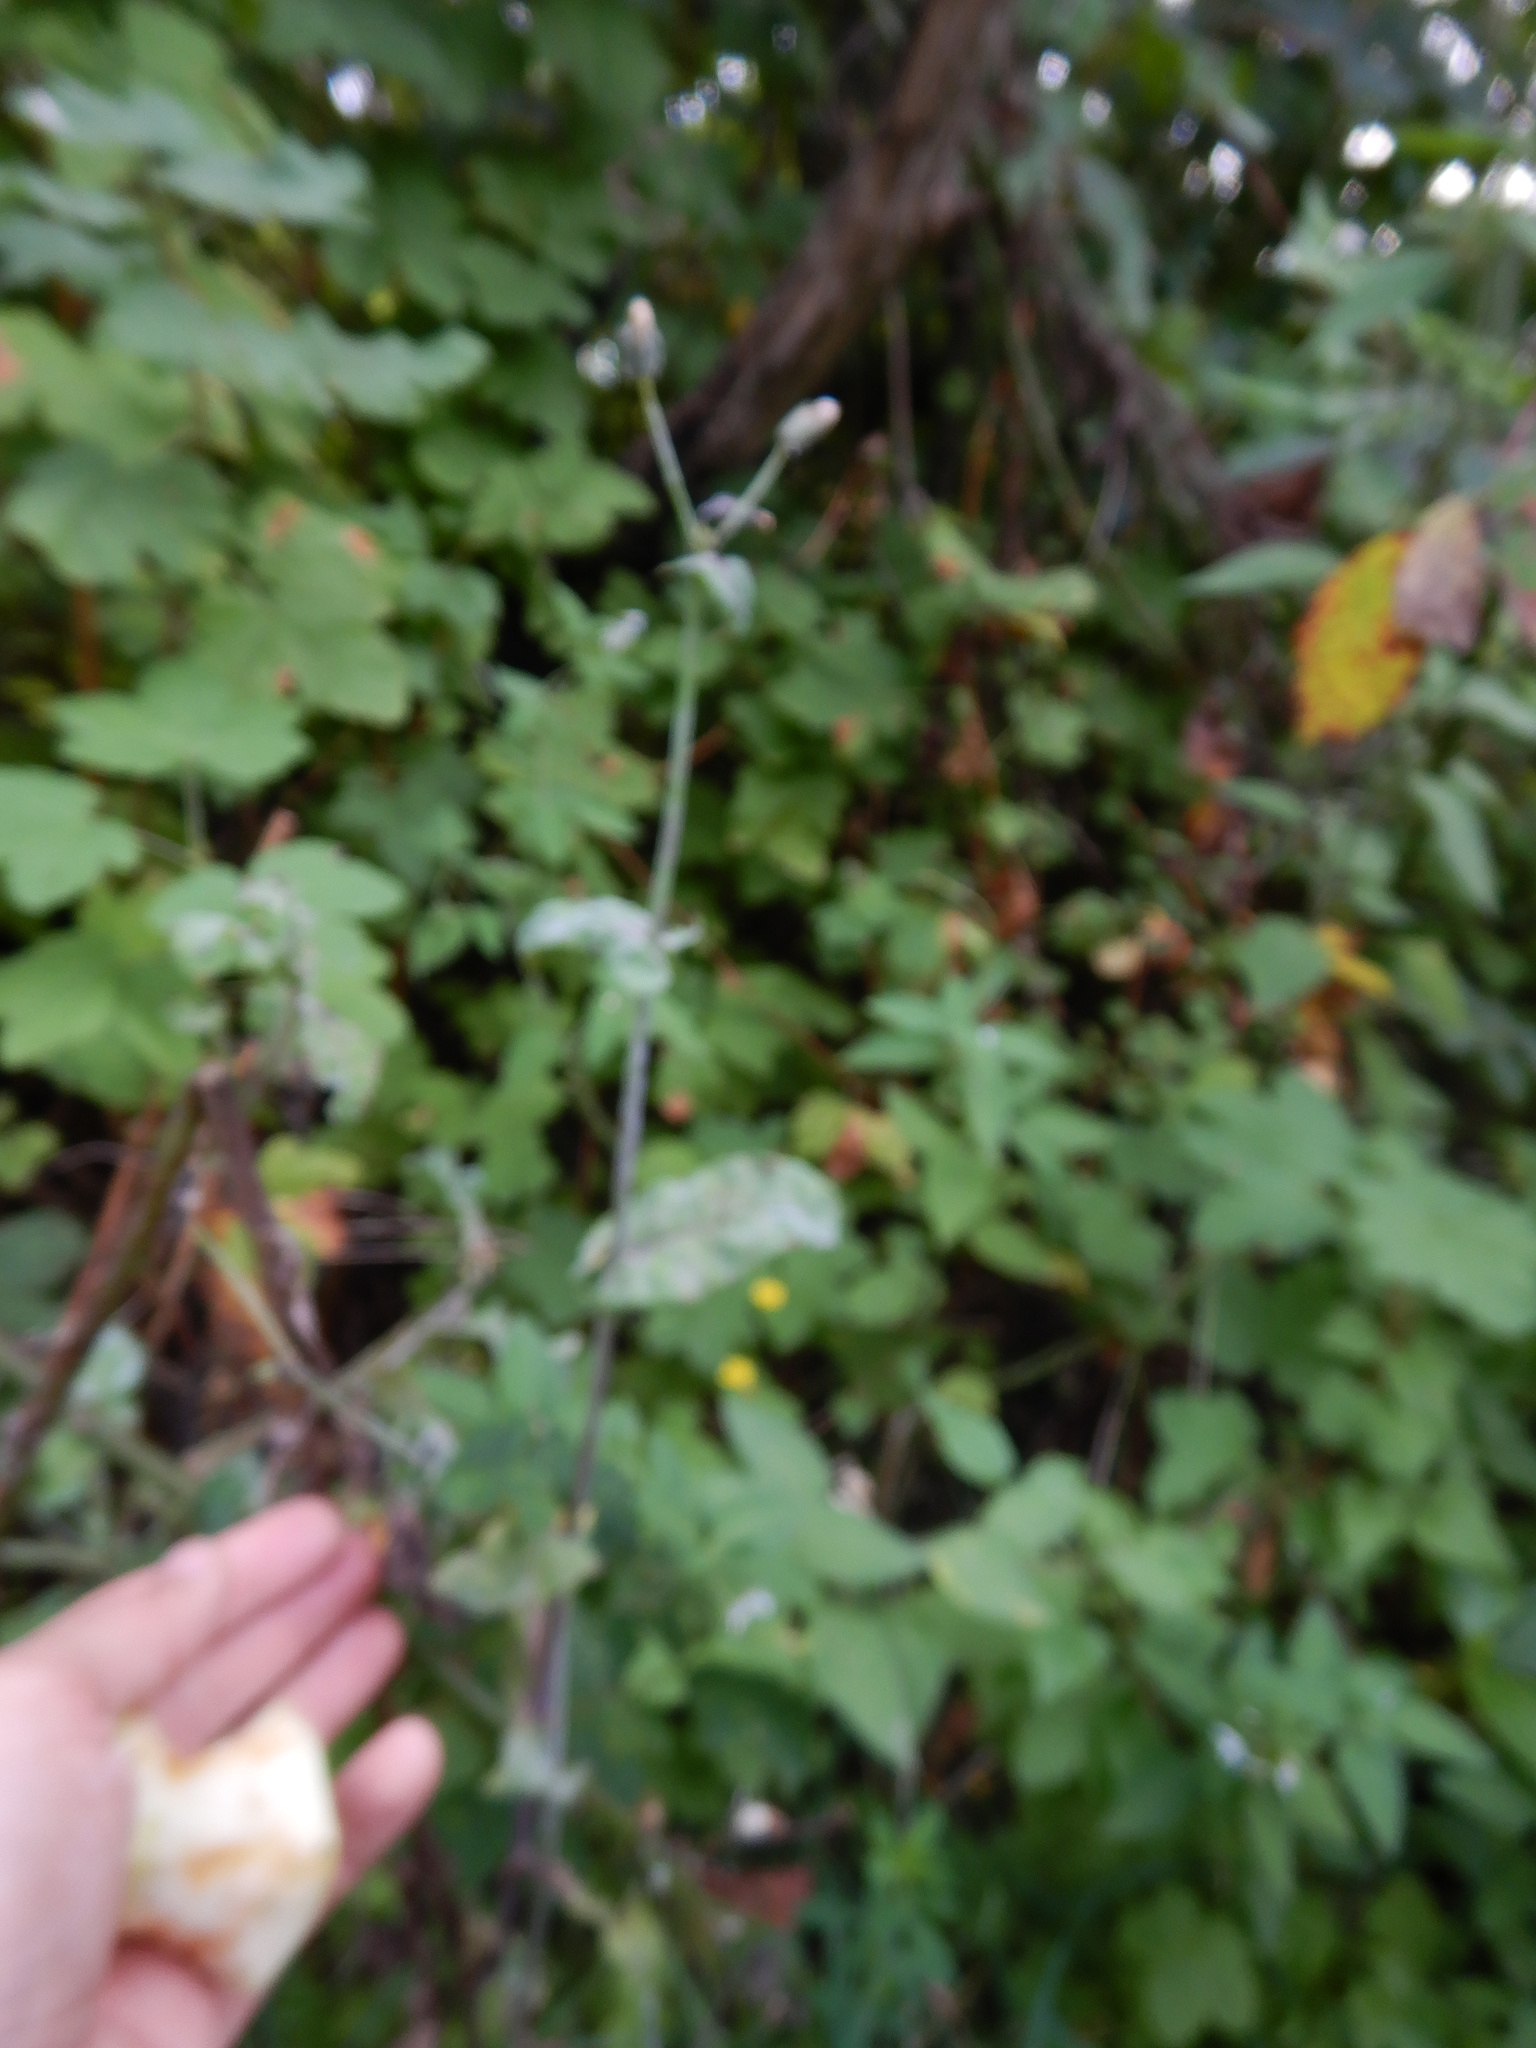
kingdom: Plantae
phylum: Tracheophyta
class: Magnoliopsida
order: Asterales
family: Asteraceae
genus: Sonchus
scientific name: Sonchus oleraceus
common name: Common sowthistle
